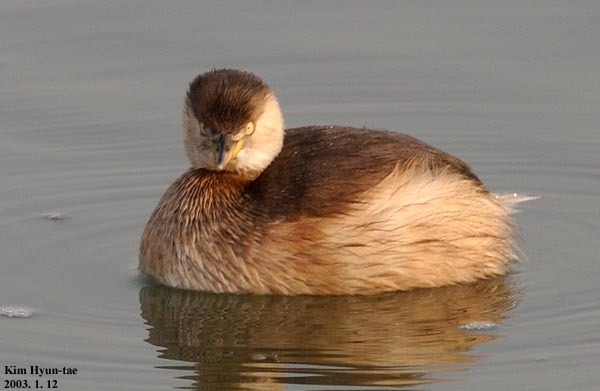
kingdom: Animalia
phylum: Chordata
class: Aves
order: Podicipediformes
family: Podicipedidae
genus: Tachybaptus
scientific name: Tachybaptus ruficollis
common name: Little grebe
